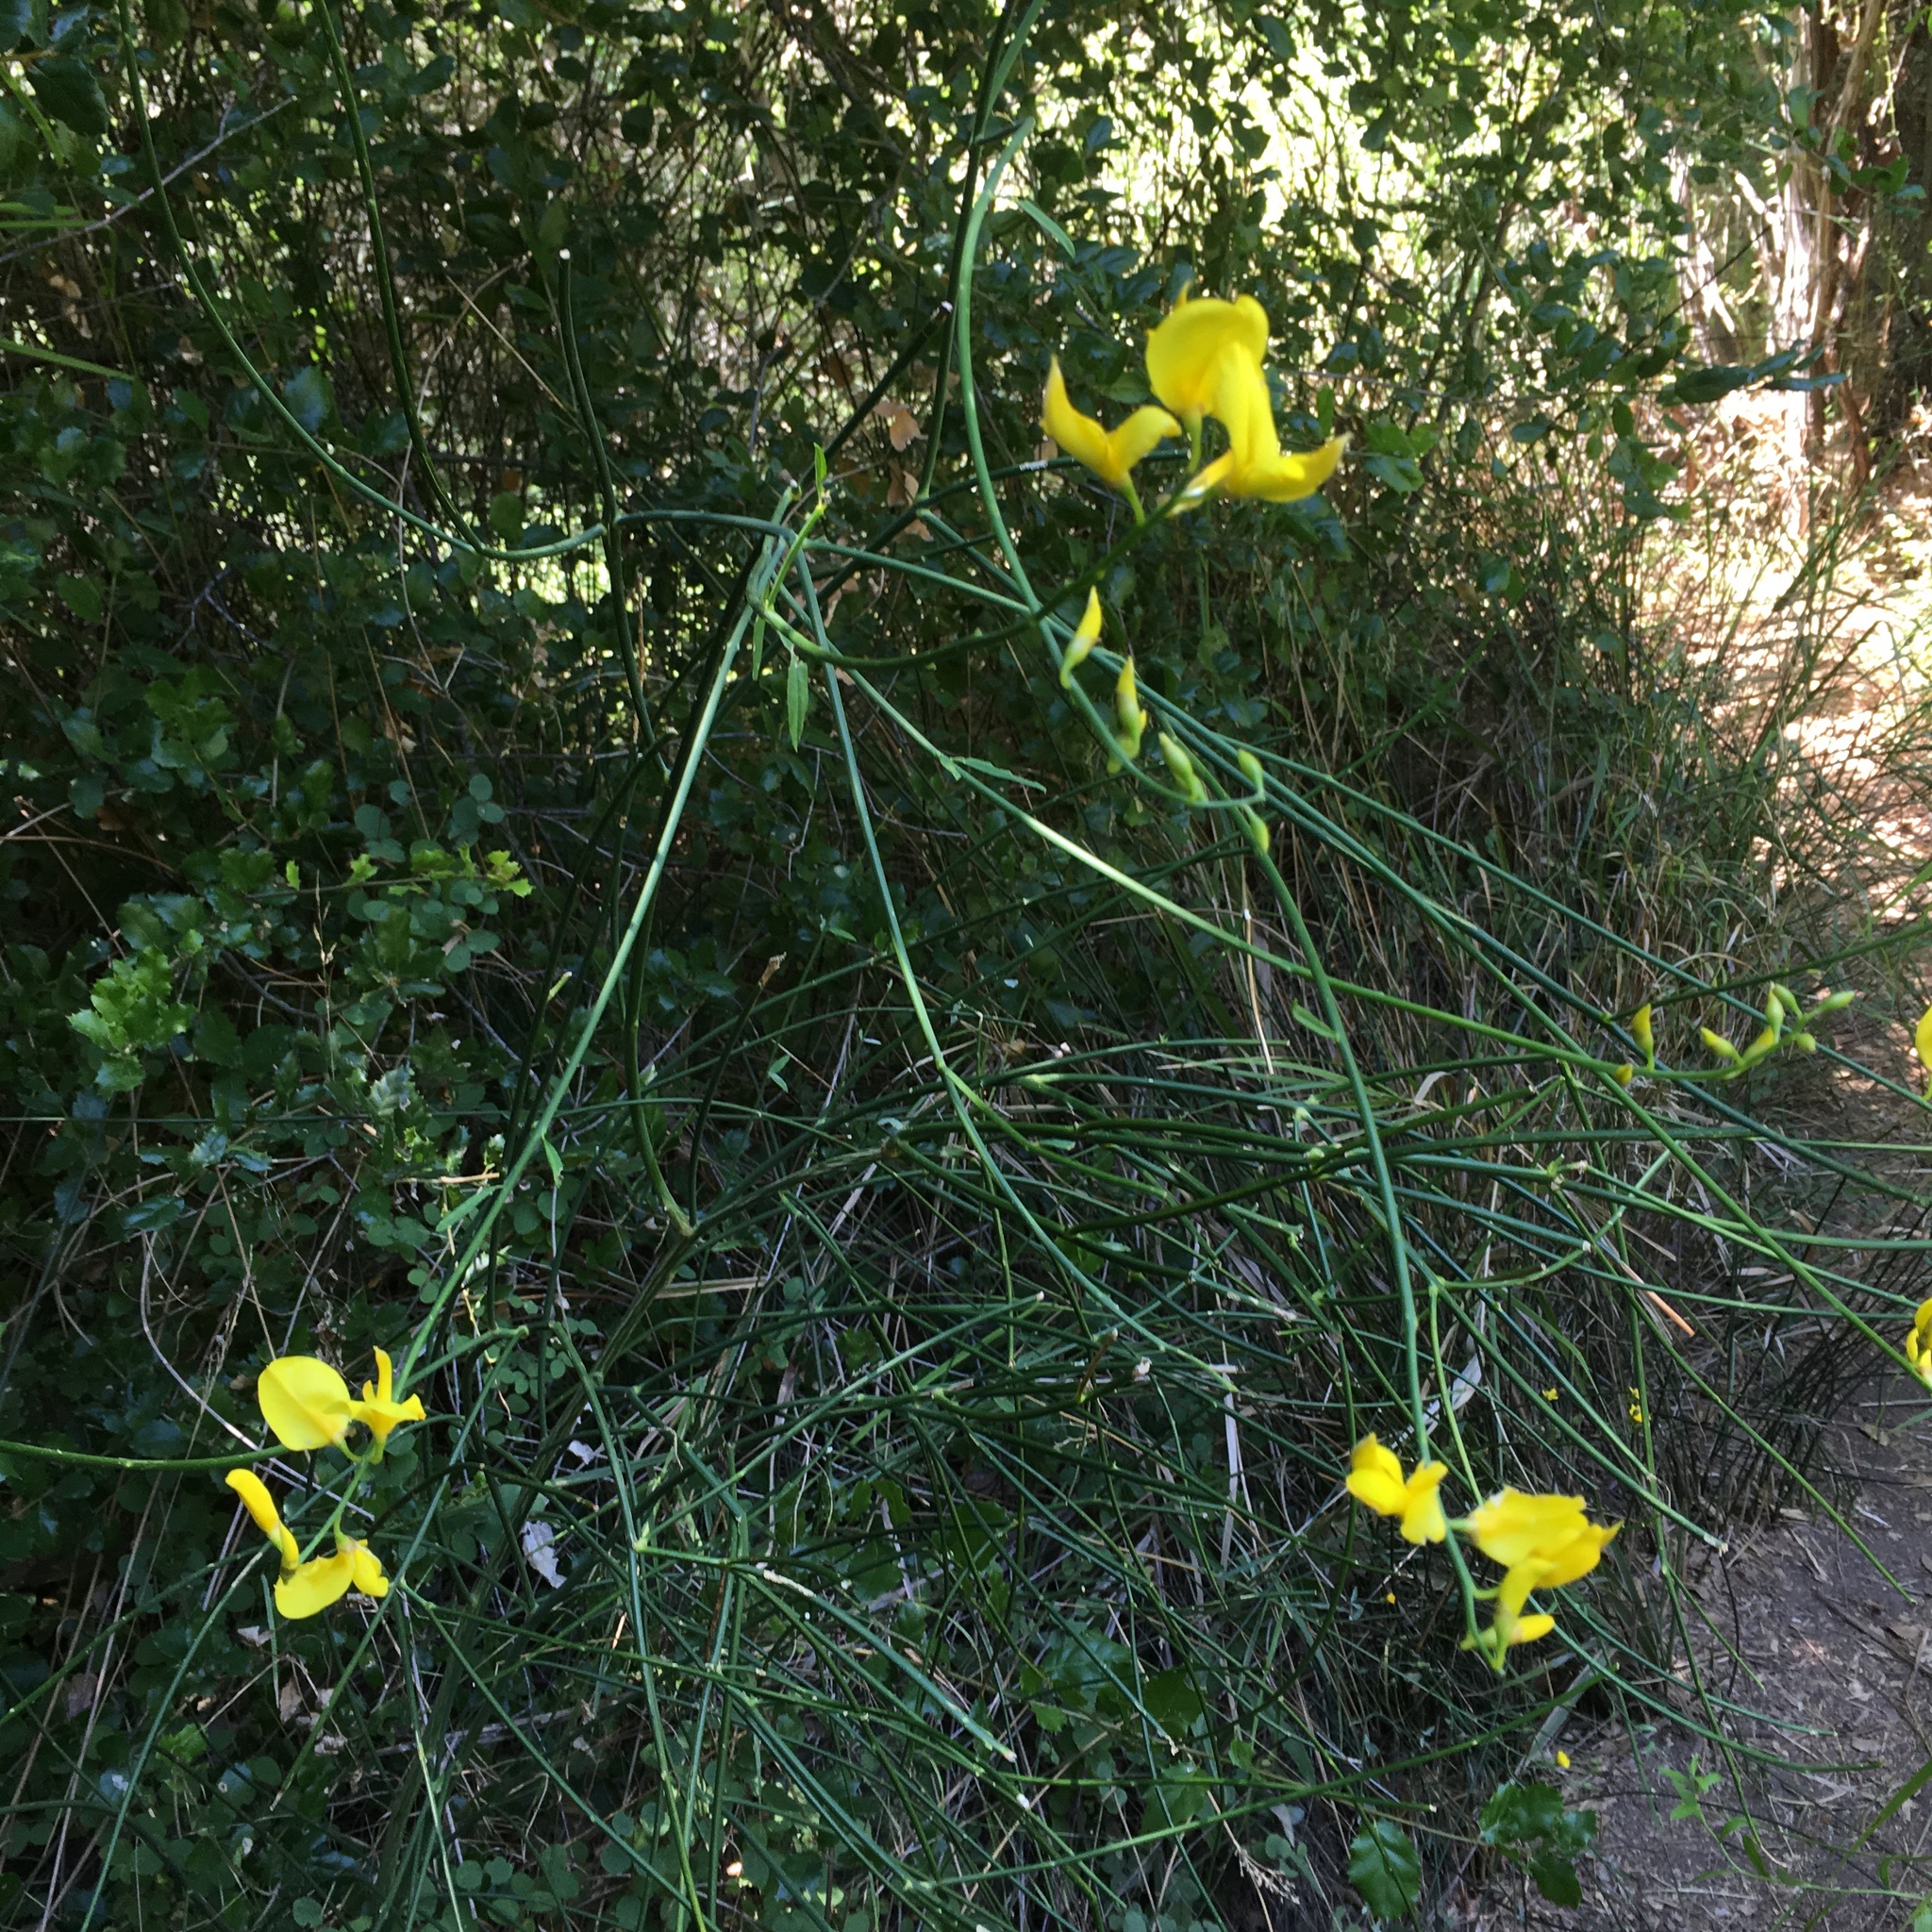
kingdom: Plantae
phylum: Tracheophyta
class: Magnoliopsida
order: Fabales
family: Fabaceae
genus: Spartium
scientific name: Spartium junceum
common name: Spanish broom
